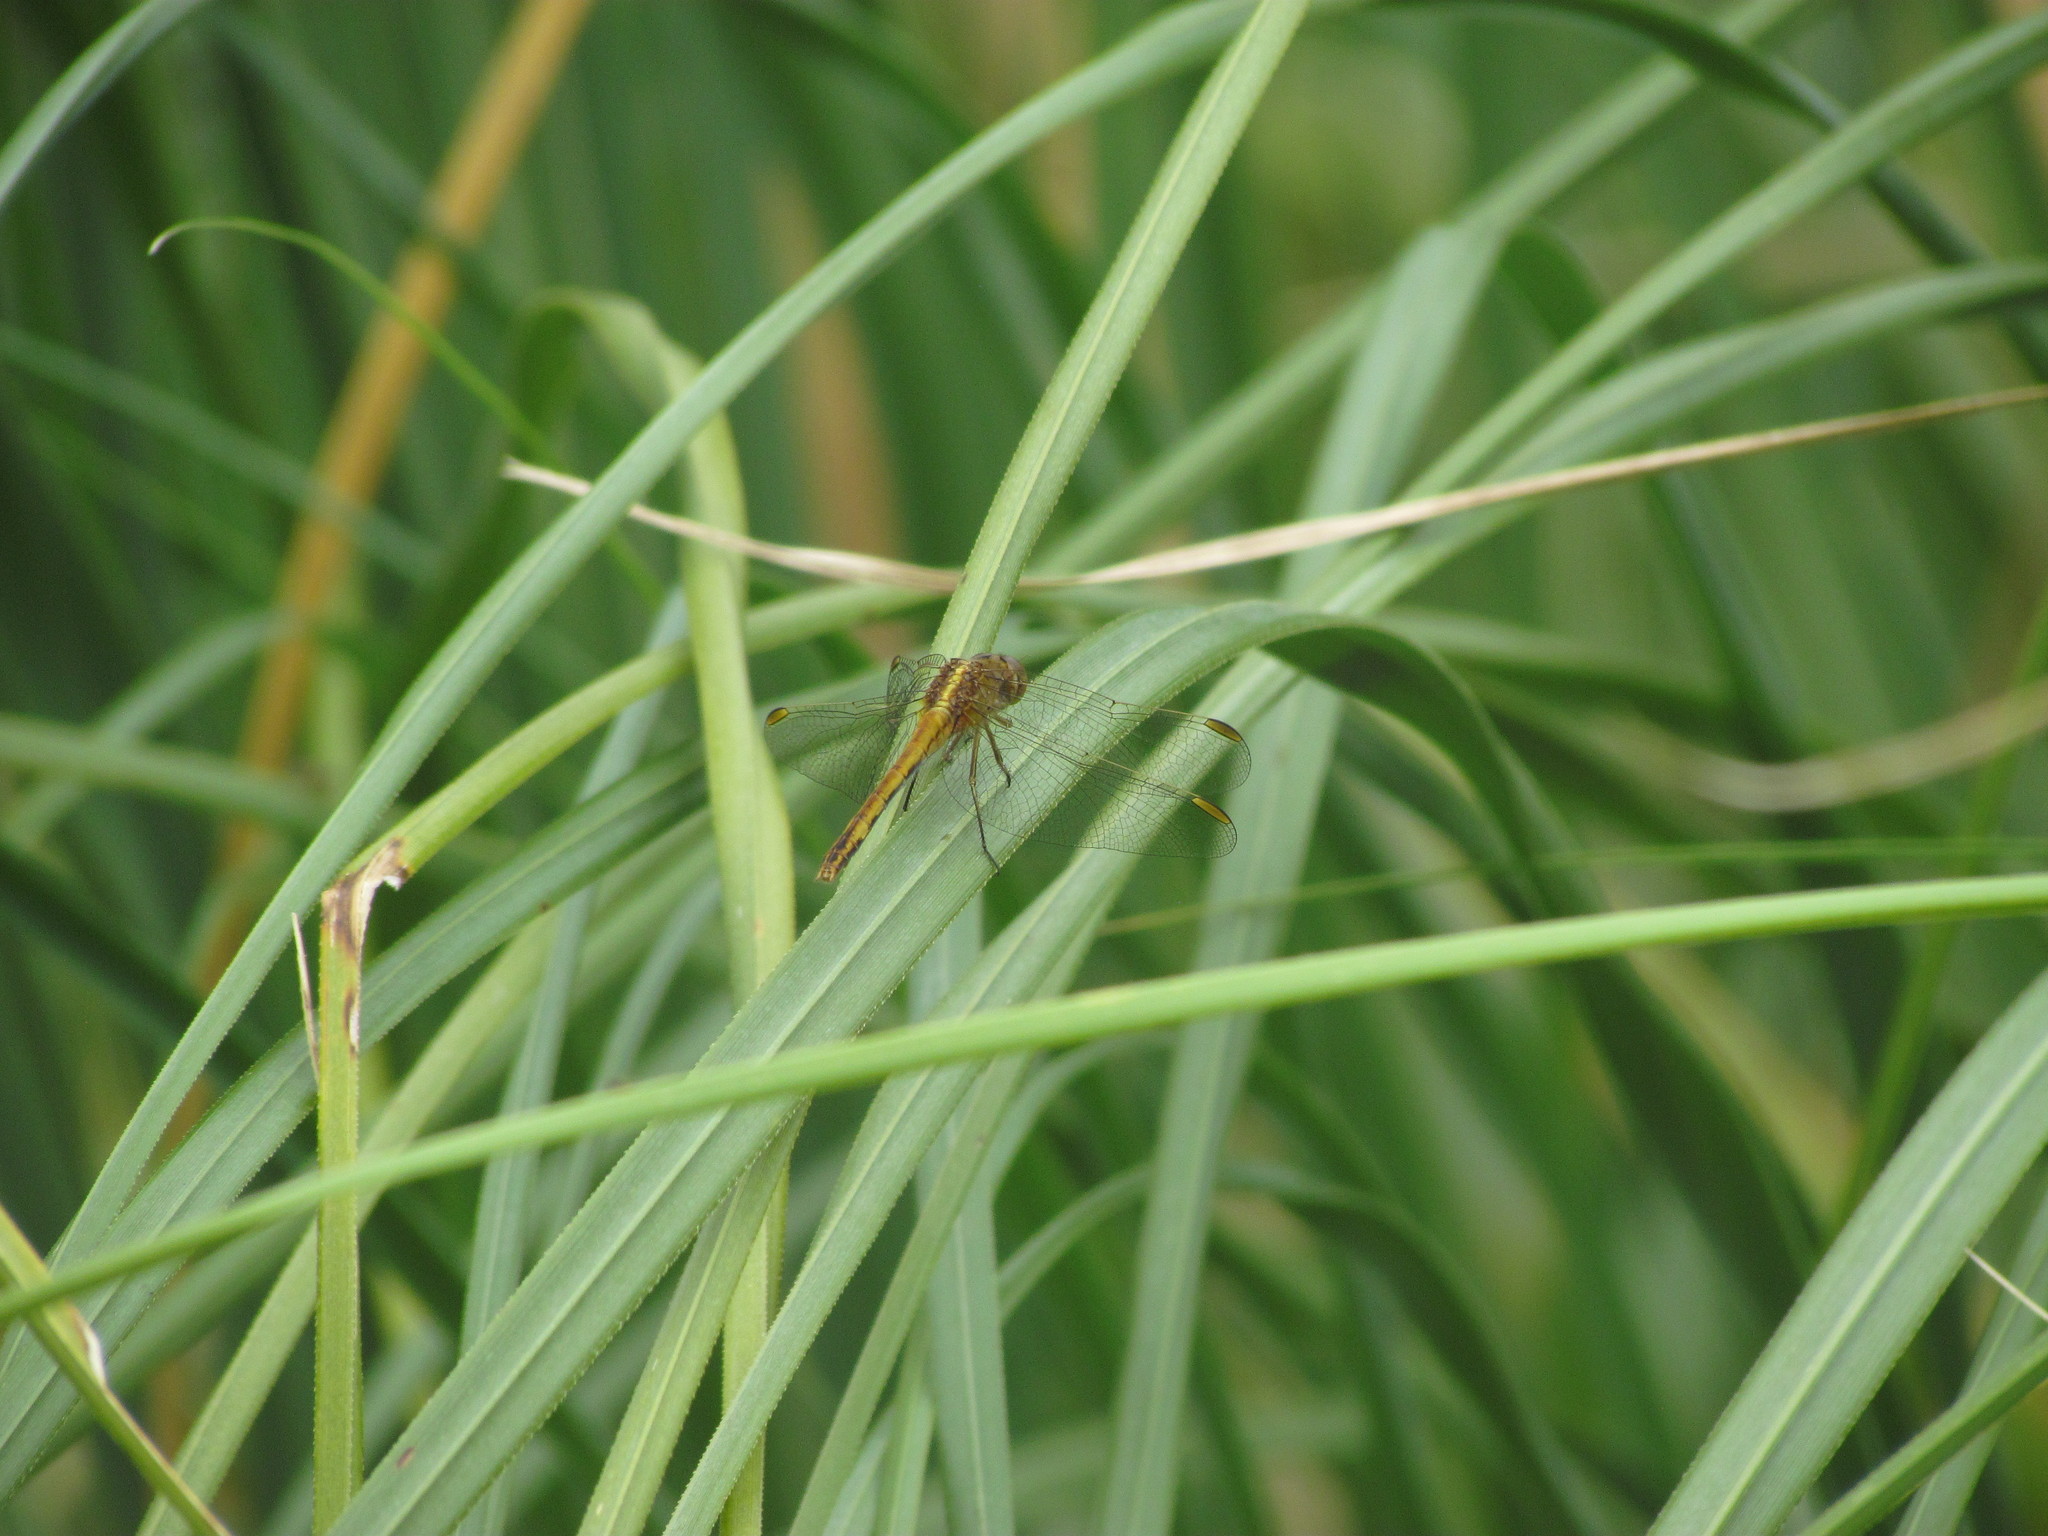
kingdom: Animalia
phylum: Arthropoda
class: Insecta
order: Odonata
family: Libellulidae
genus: Erythrodiplax
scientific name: Erythrodiplax nigricans
